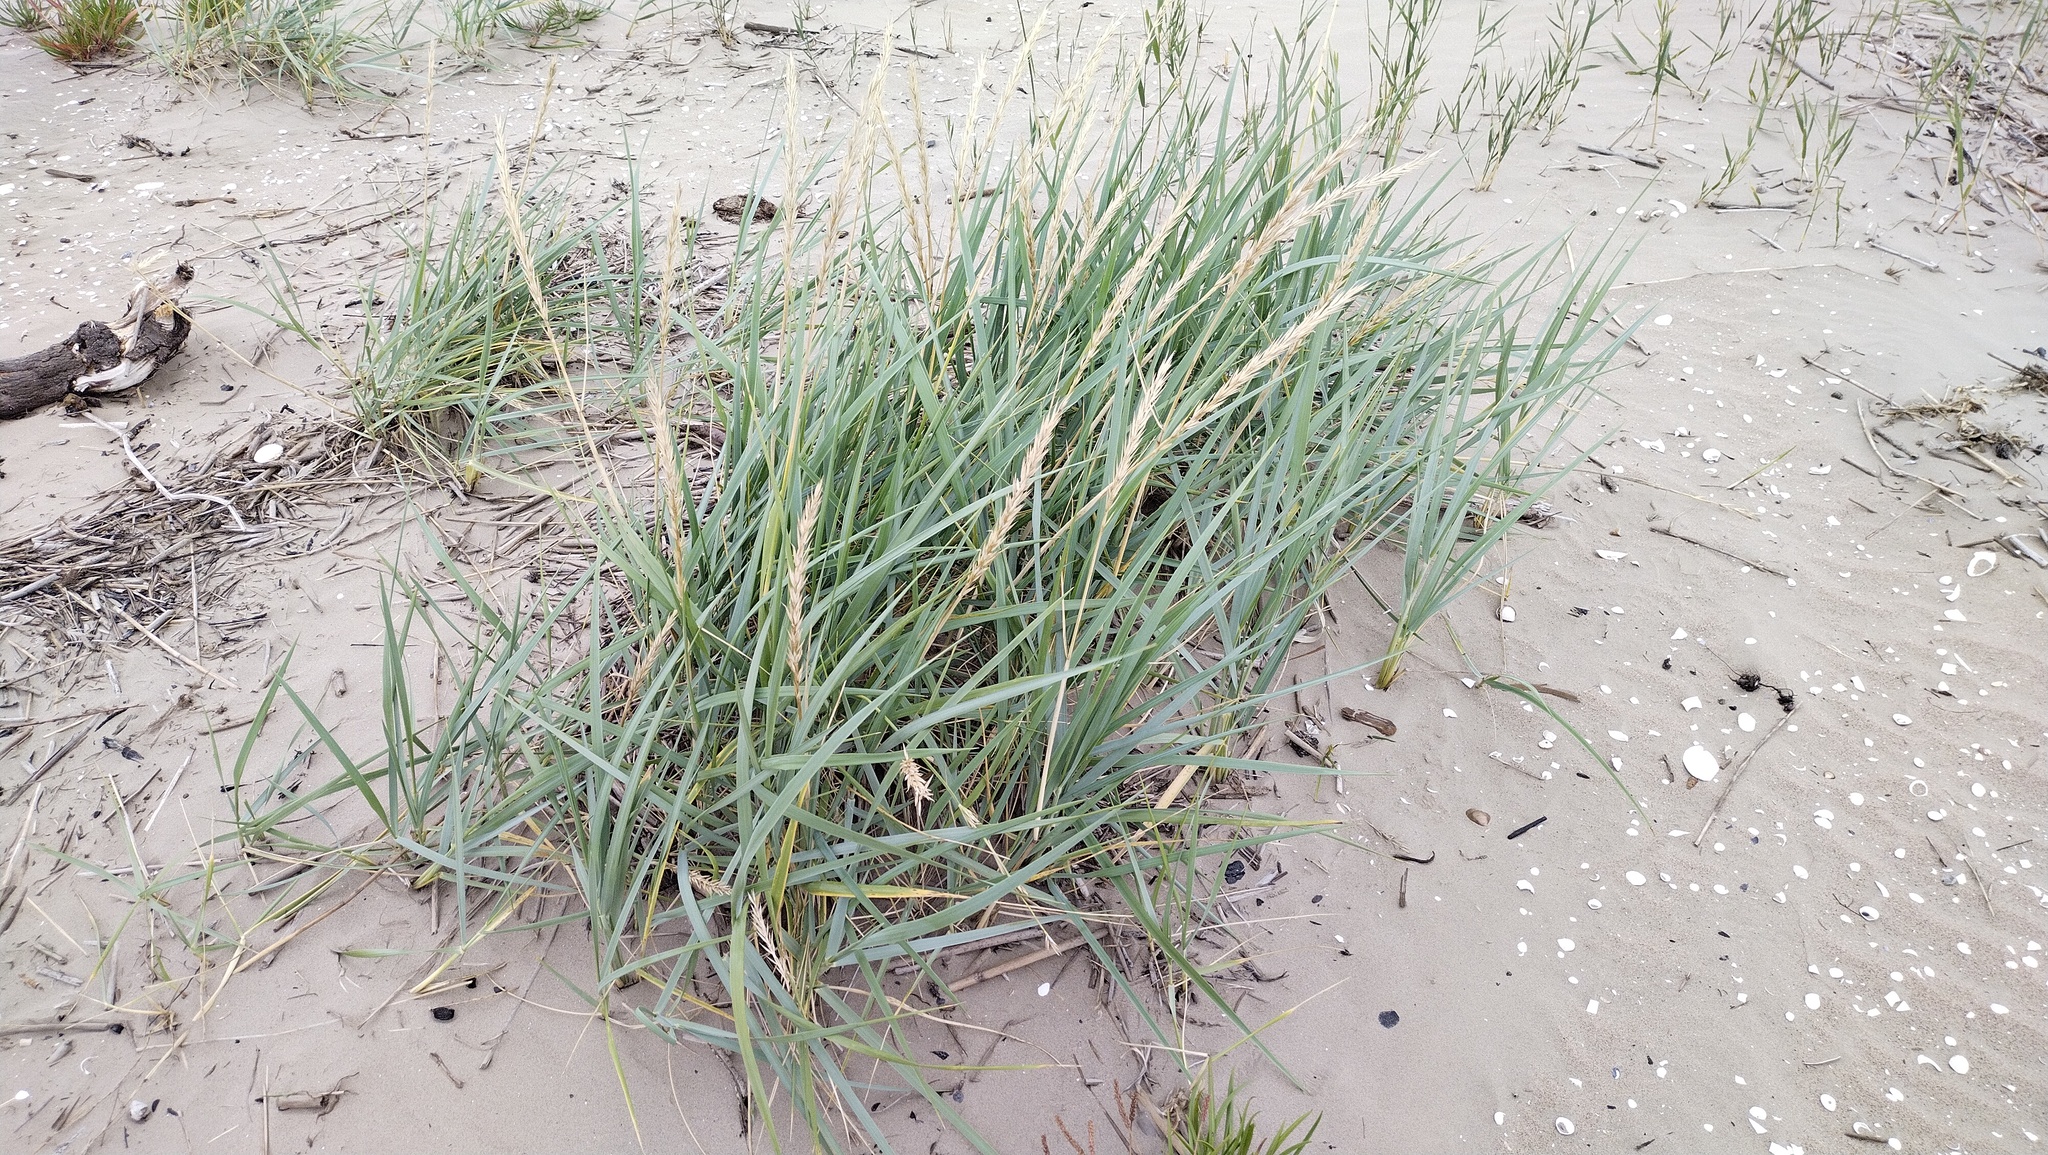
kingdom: Plantae
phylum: Tracheophyta
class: Liliopsida
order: Poales
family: Poaceae
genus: Leymus
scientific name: Leymus arenarius
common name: Lyme-grass
